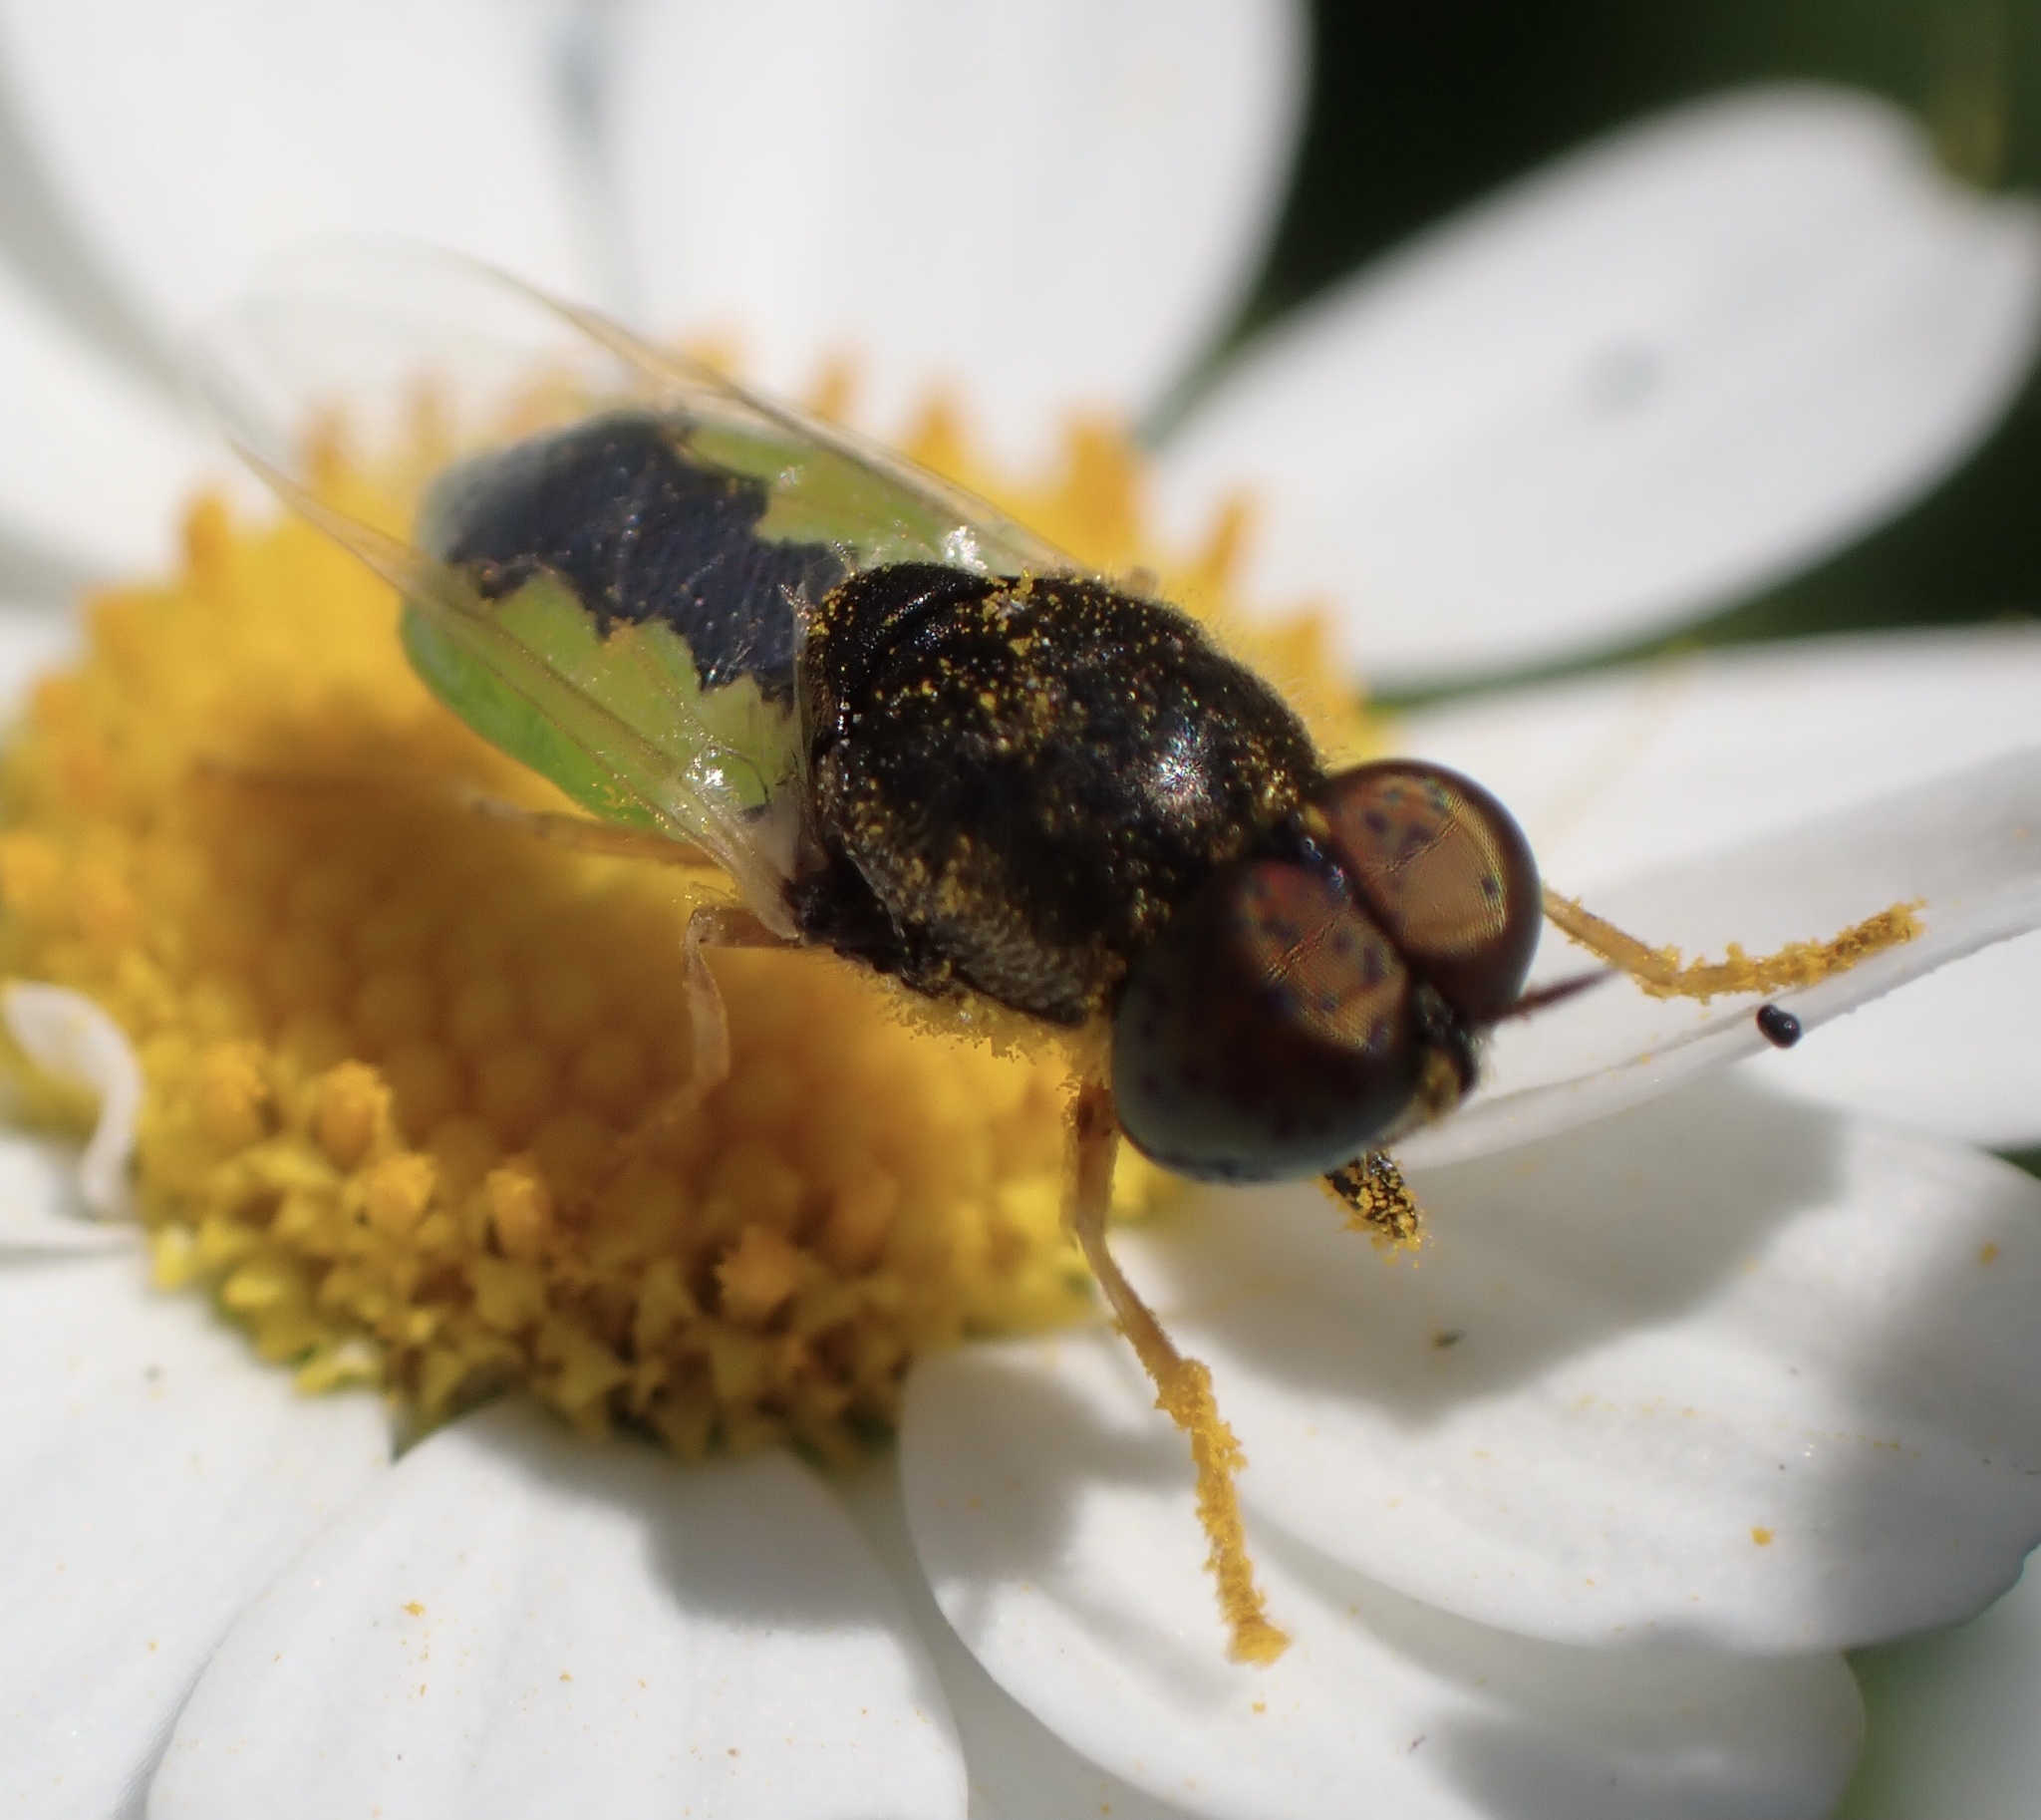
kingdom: Animalia
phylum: Arthropoda
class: Insecta
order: Diptera
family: Stratiomyidae
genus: Oplodontha
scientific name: Oplodontha viridula
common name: Common green colonel
